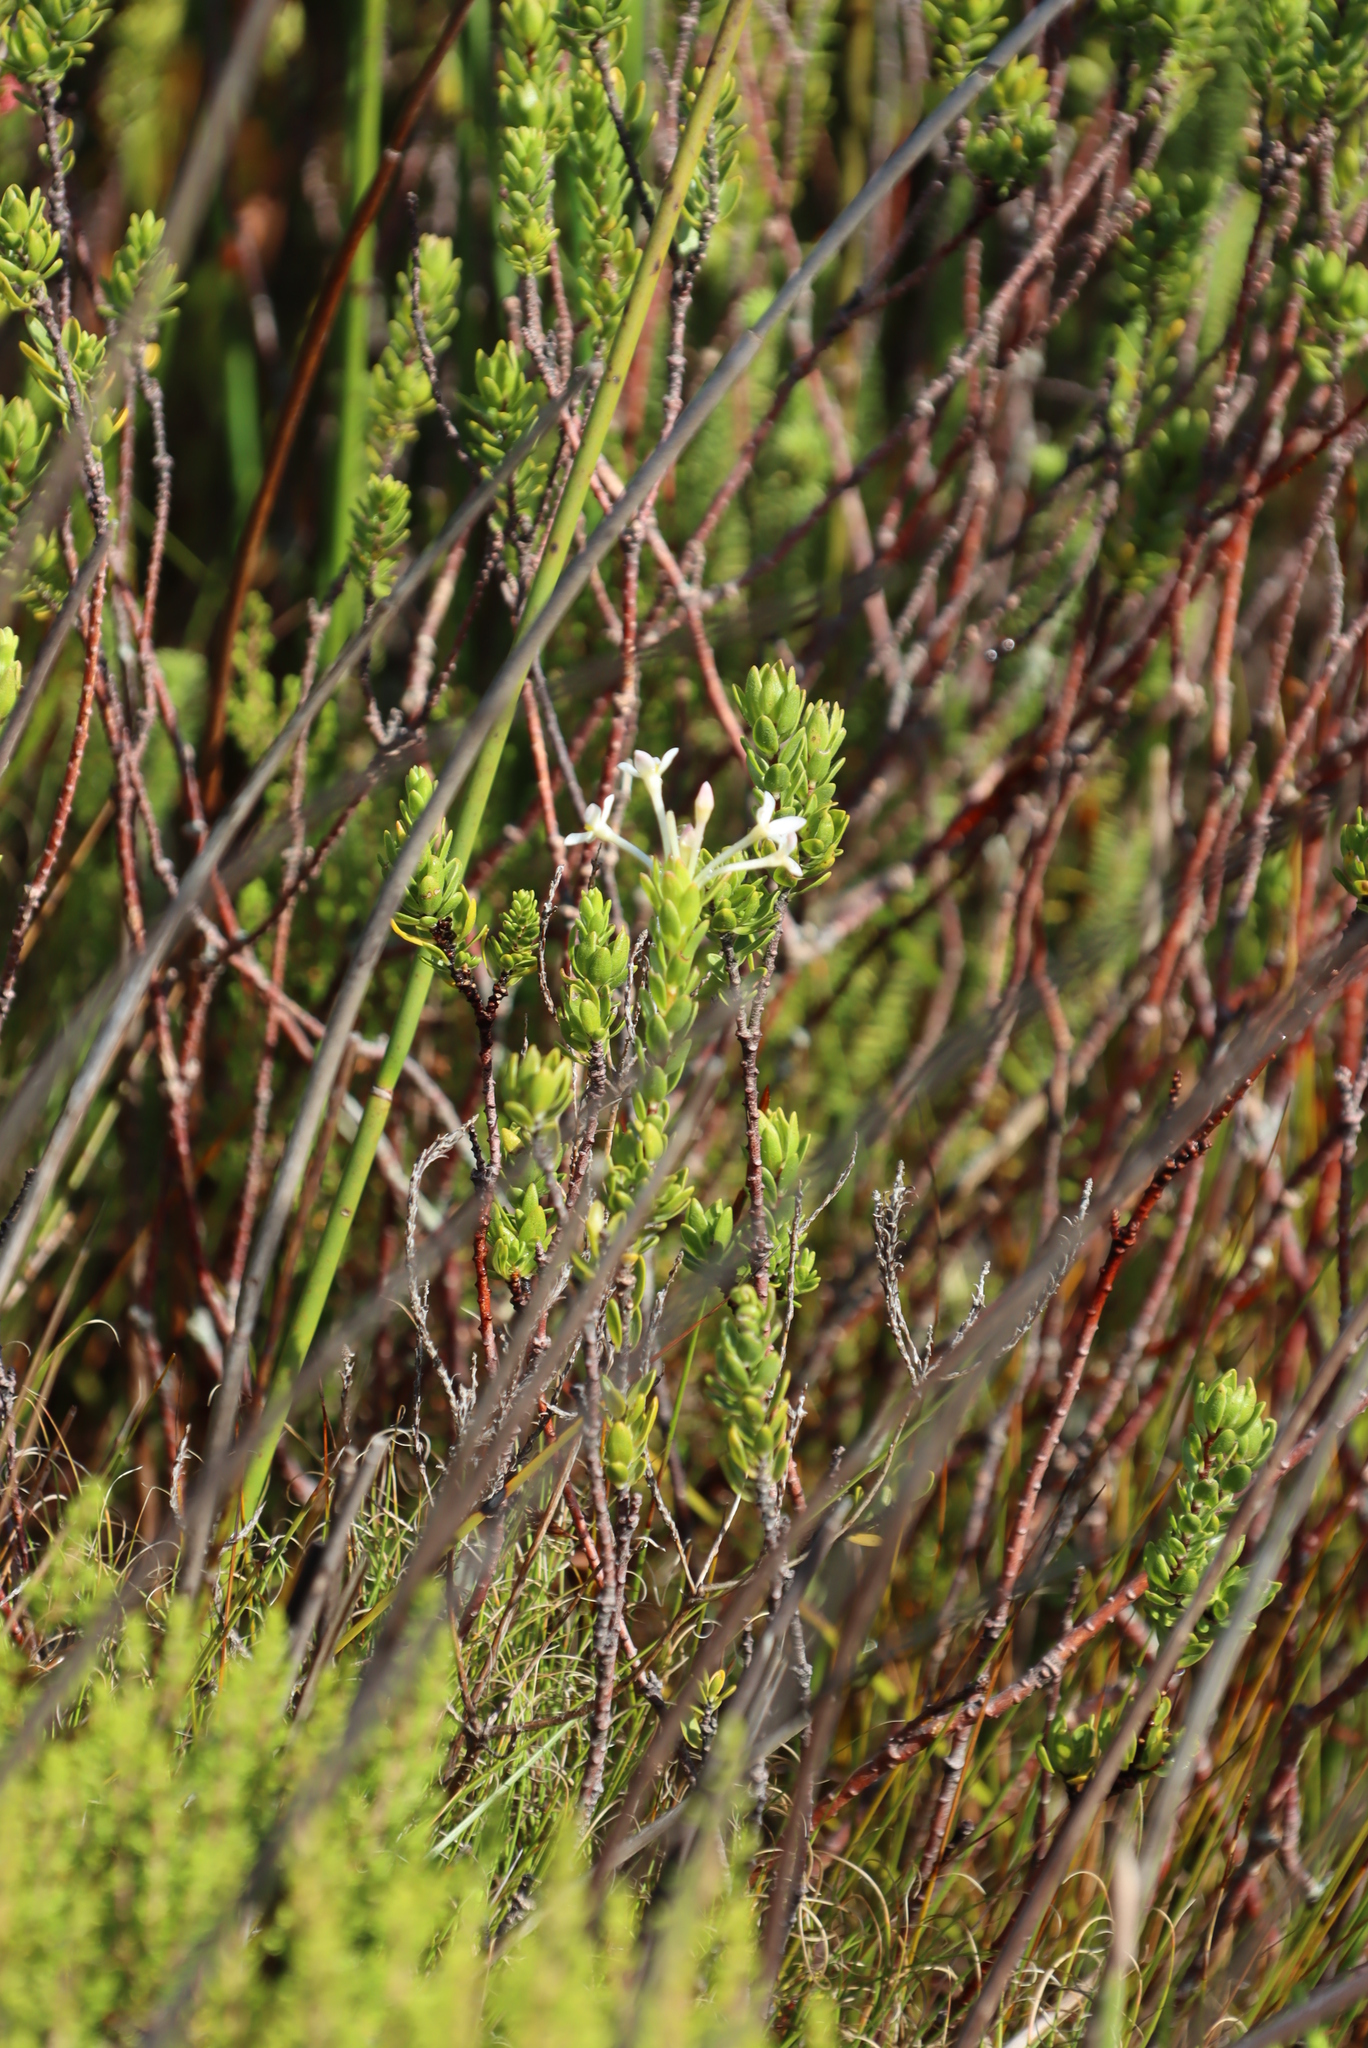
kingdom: Plantae
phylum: Tracheophyta
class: Magnoliopsida
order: Malvales
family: Thymelaeaceae
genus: Gnidia
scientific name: Gnidia tomentosa
